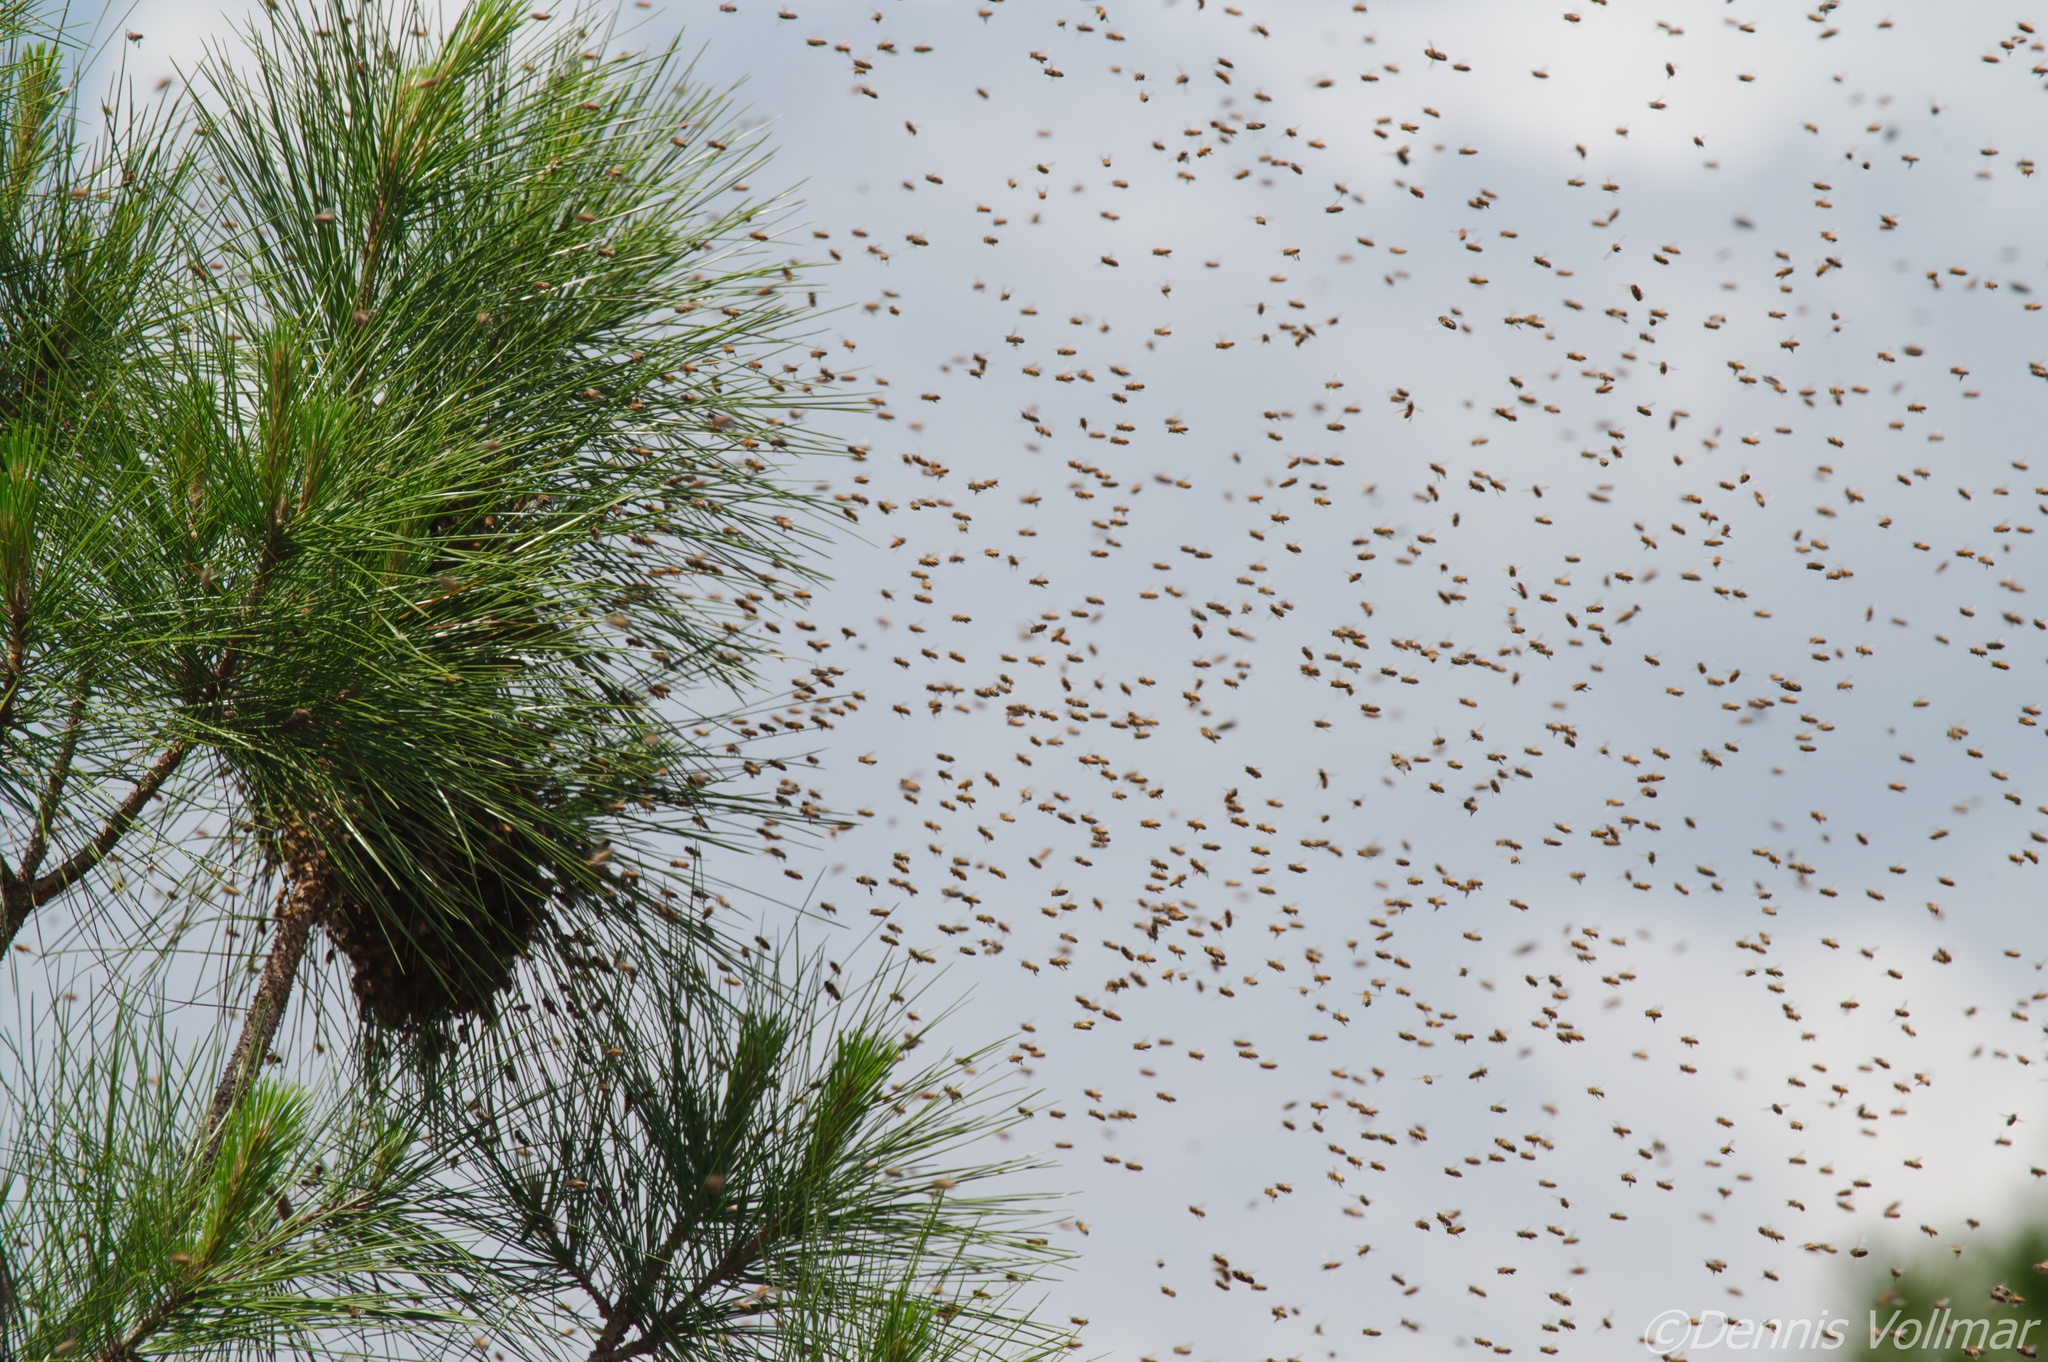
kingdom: Animalia
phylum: Arthropoda
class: Insecta
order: Hymenoptera
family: Apidae
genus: Apis
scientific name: Apis mellifera
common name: Honey bee
